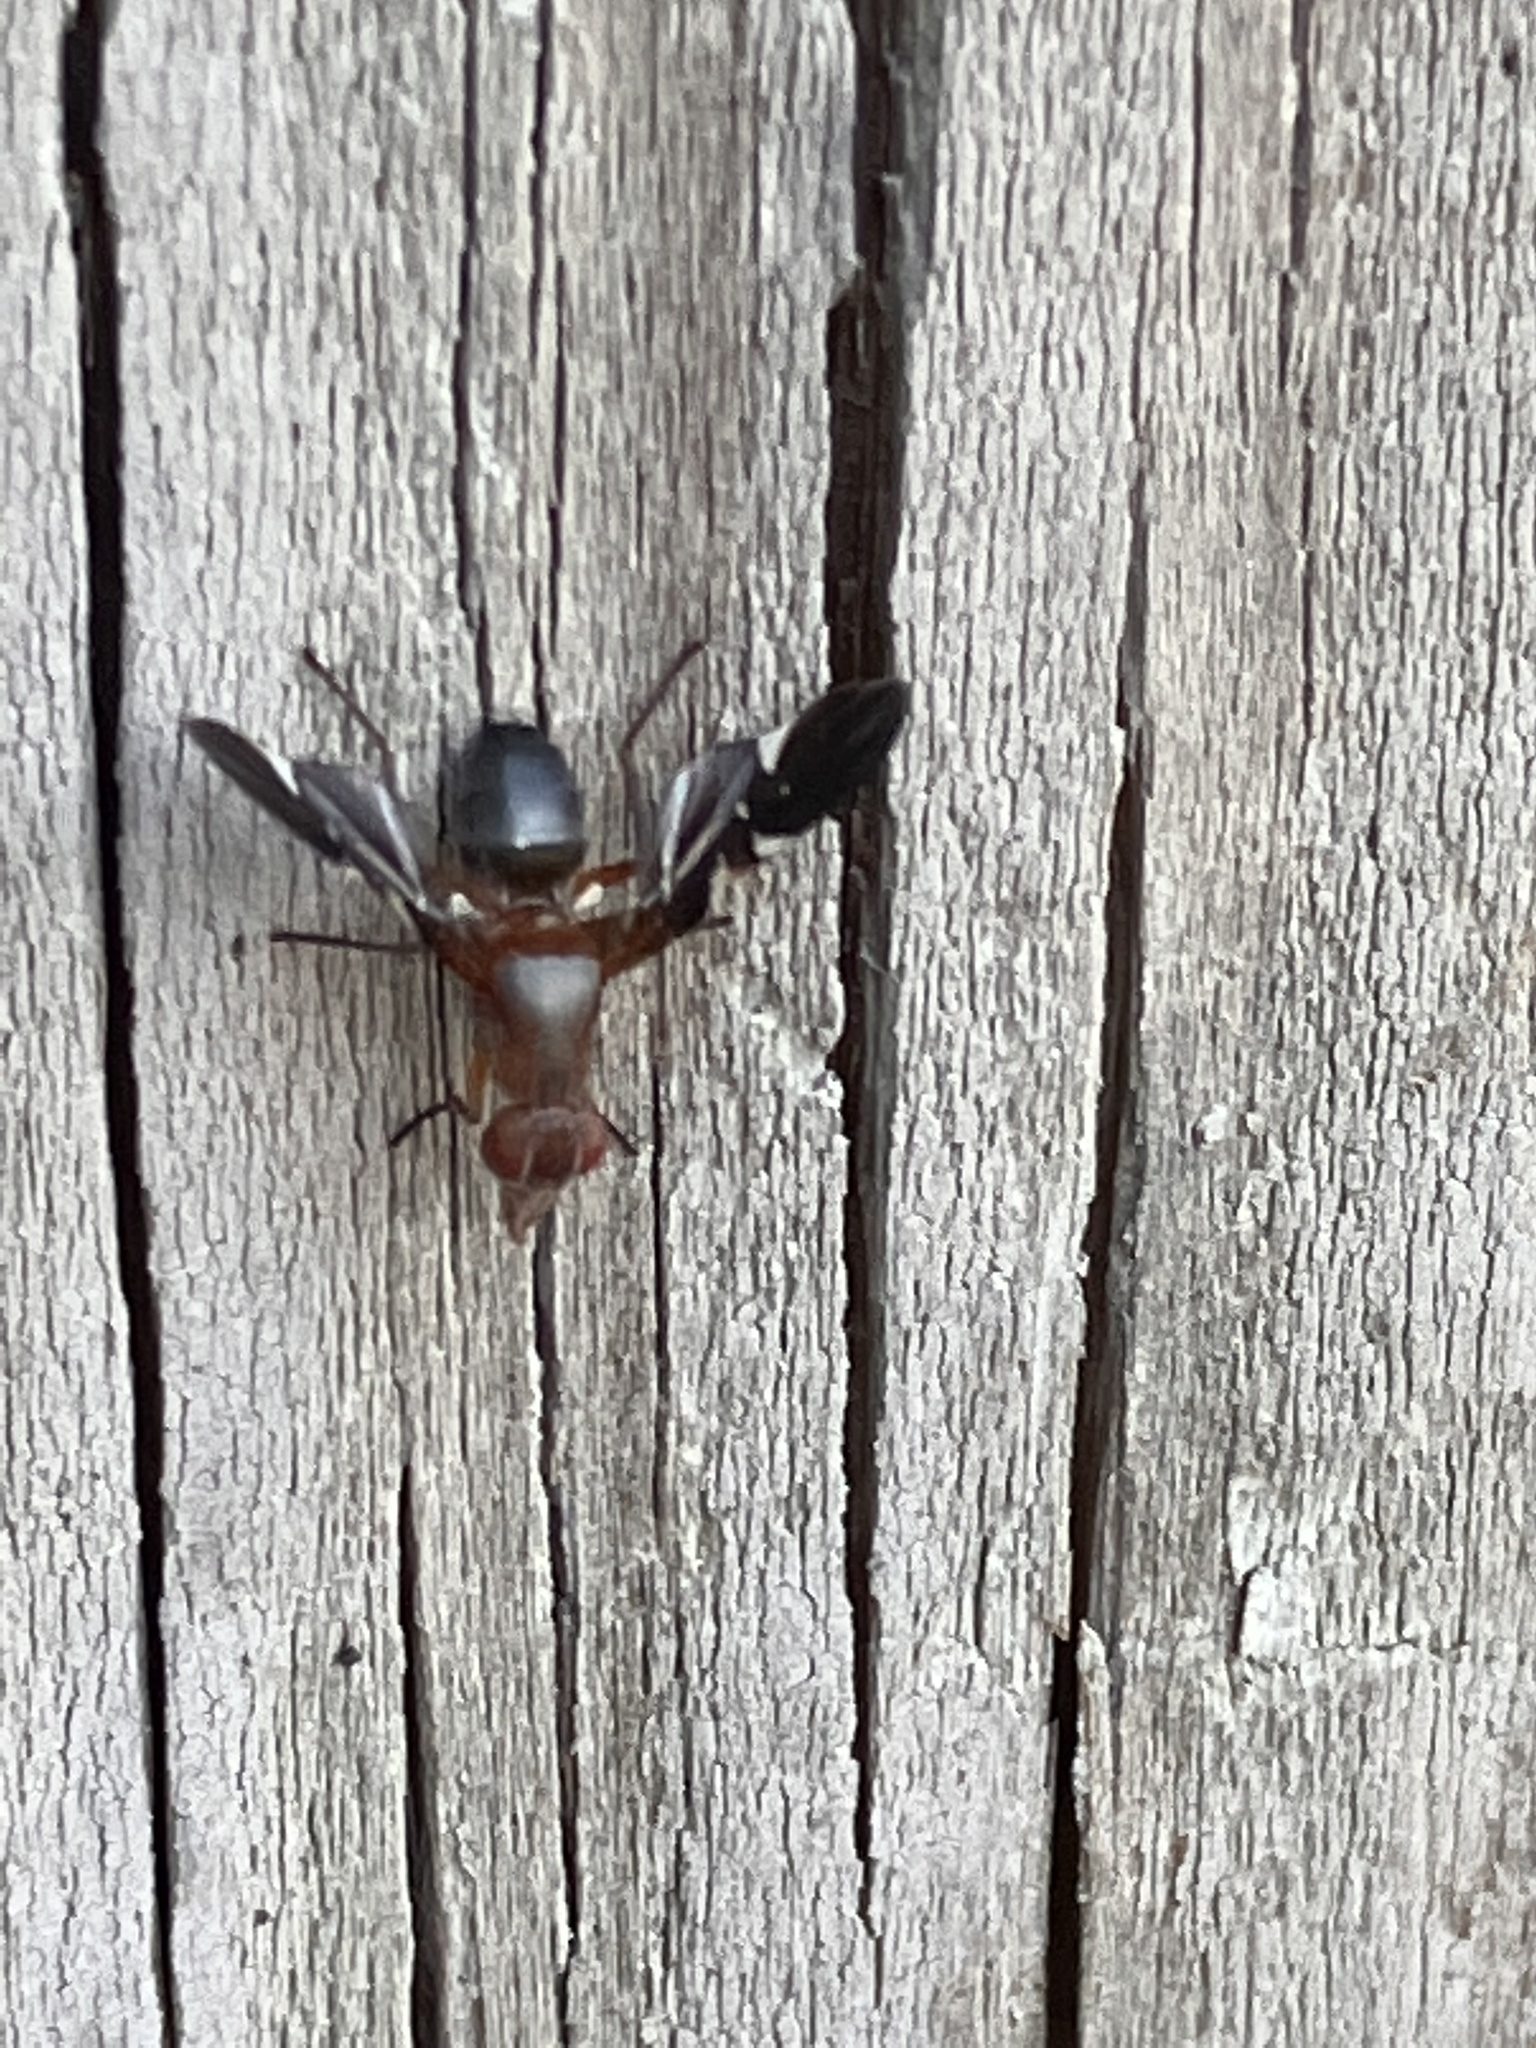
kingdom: Animalia
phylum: Arthropoda
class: Insecta
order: Diptera
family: Ulidiidae
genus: Delphinia
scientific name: Delphinia picta
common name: Common picture-winged fly
